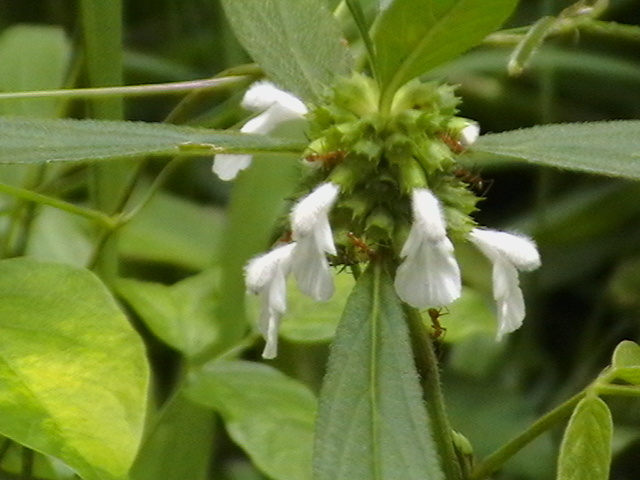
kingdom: Animalia
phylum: Arthropoda
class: Insecta
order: Hymenoptera
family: Formicidae
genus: Anoplolepis
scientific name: Anoplolepis gracilipes
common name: Ant
